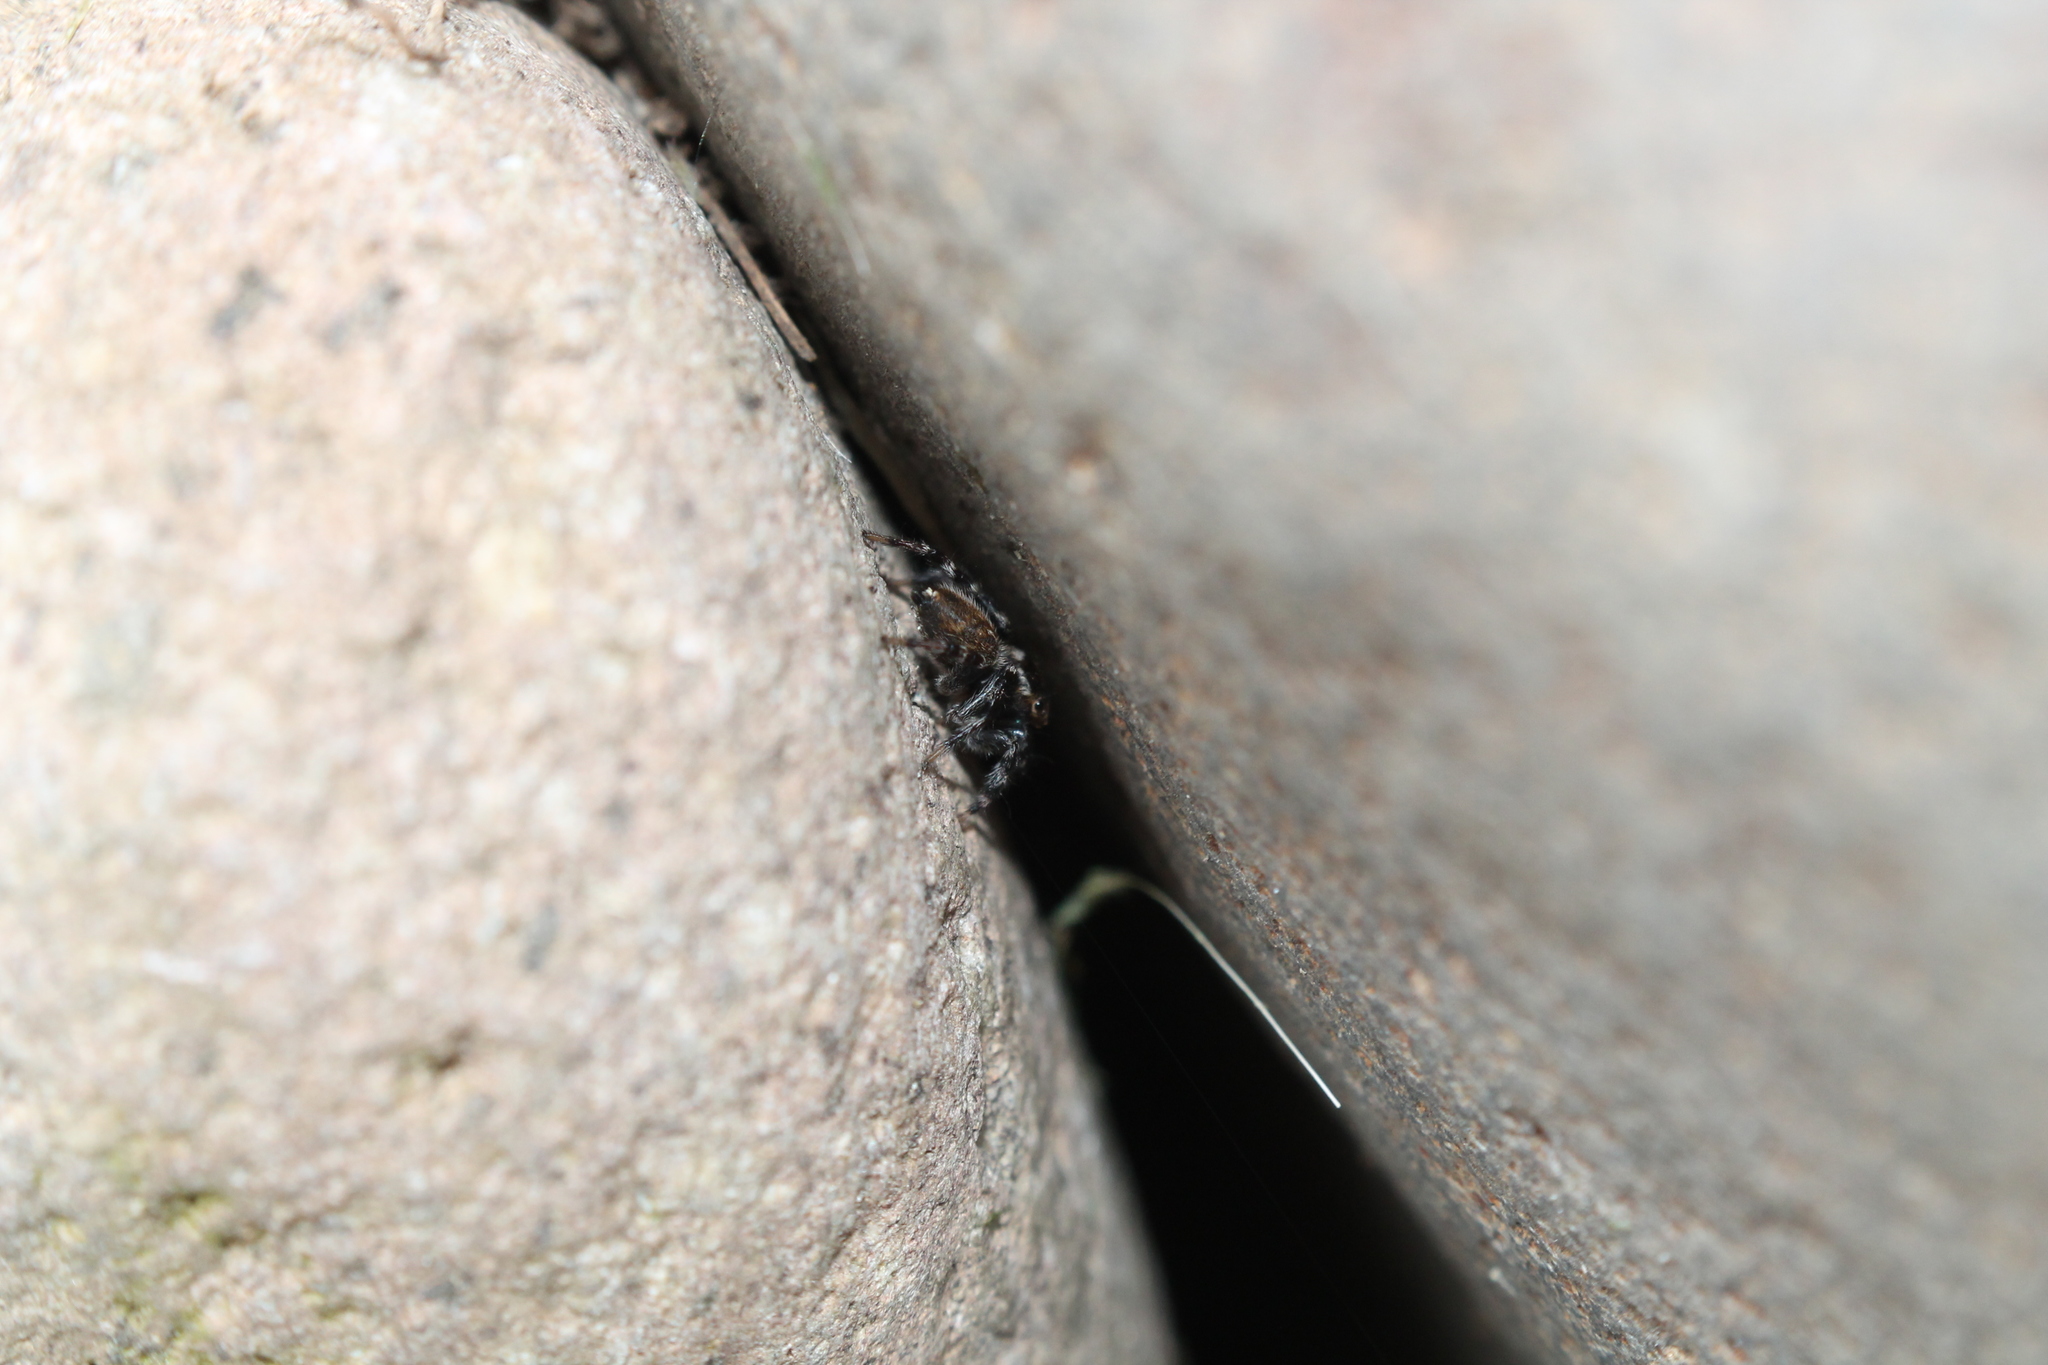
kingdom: Animalia
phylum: Arthropoda
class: Arachnida
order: Araneae
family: Salticidae
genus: Maratus
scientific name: Maratus griseus
